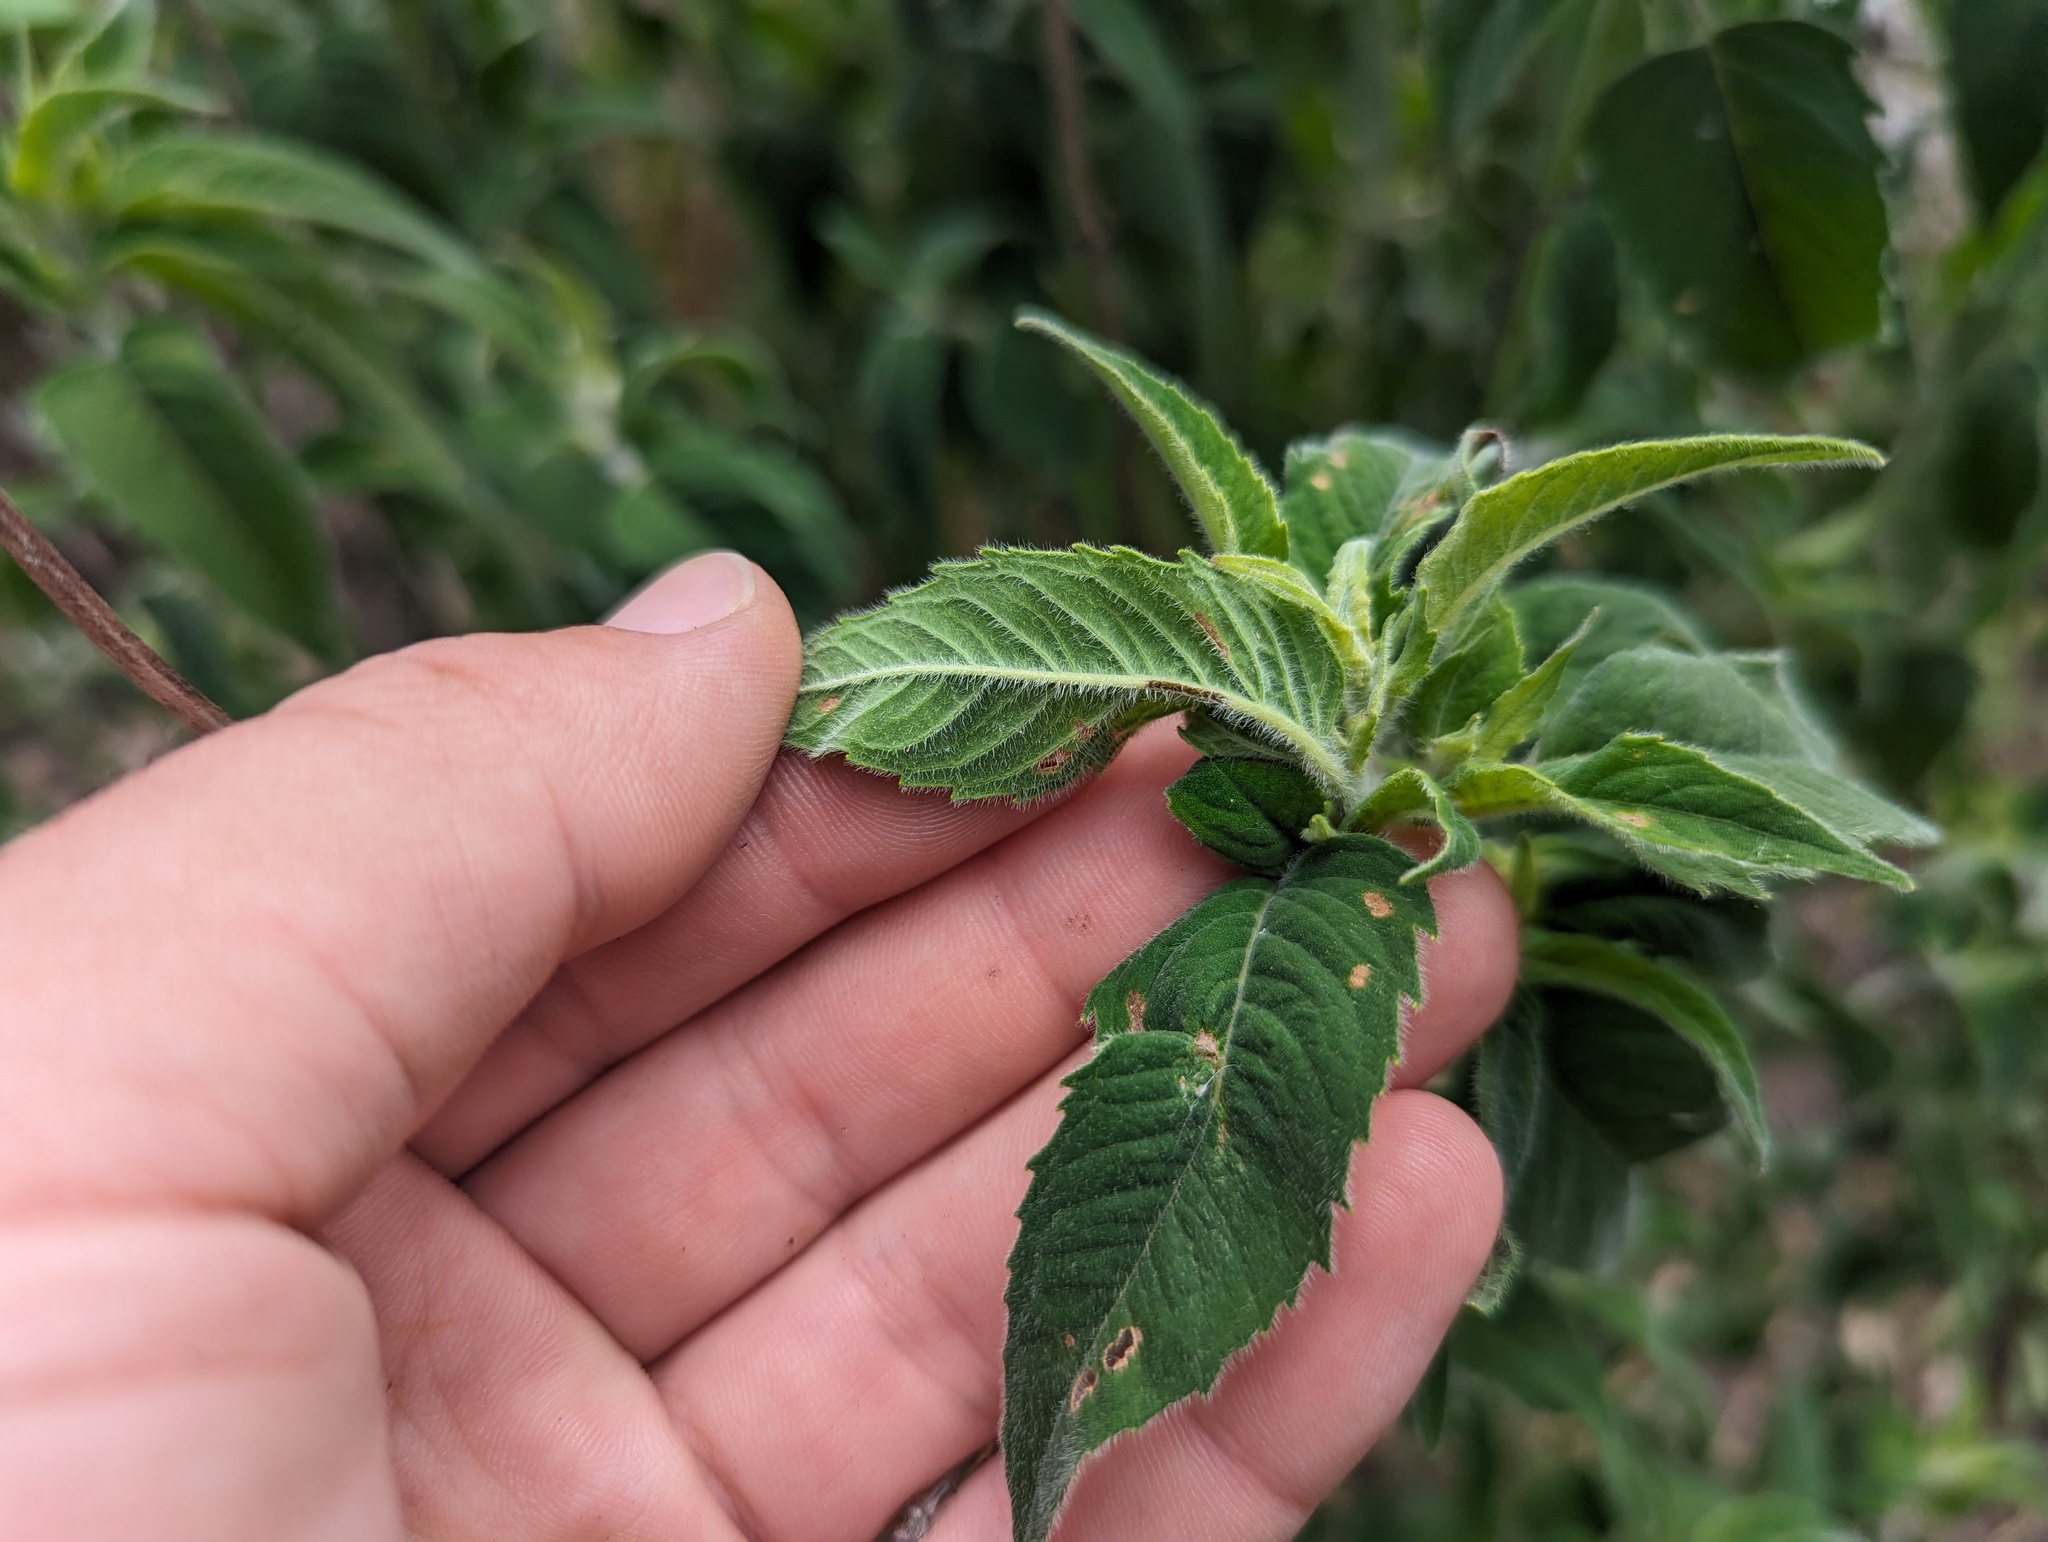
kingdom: Plantae
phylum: Tracheophyta
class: Magnoliopsida
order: Lamiales
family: Lamiaceae
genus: Monarda
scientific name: Monarda fistulosa
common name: Purple beebalm
